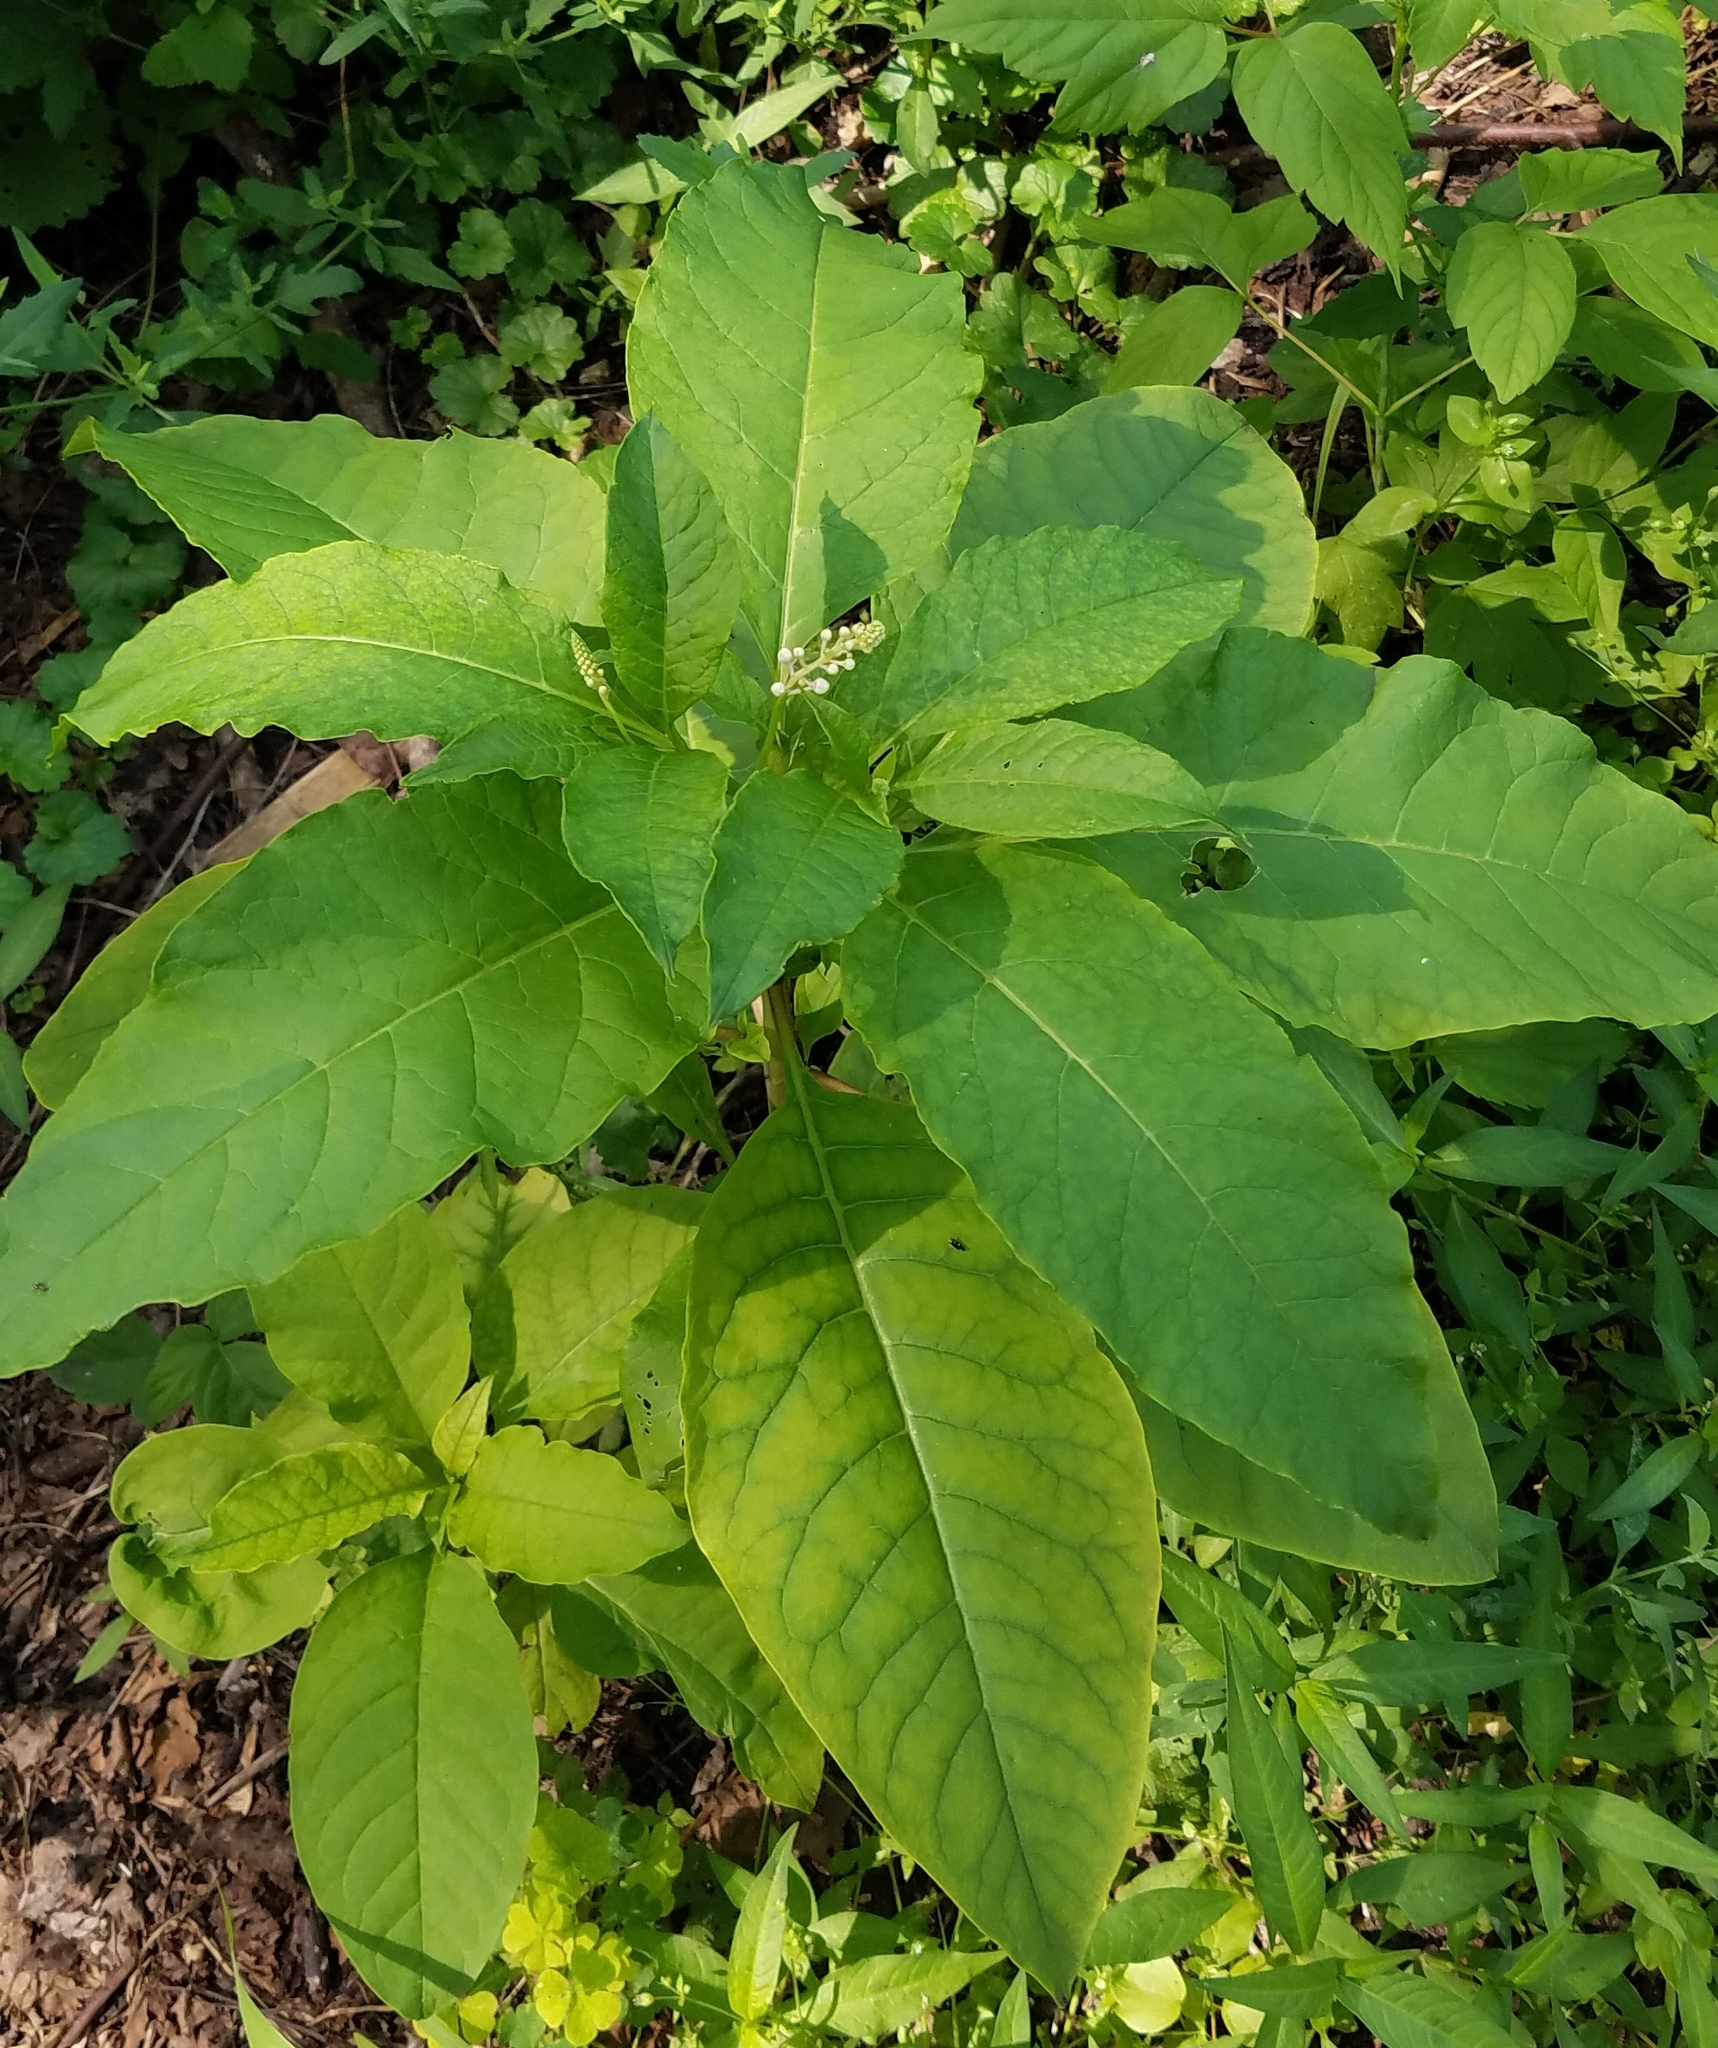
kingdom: Plantae
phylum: Tracheophyta
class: Magnoliopsida
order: Caryophyllales
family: Phytolaccaceae
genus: Phytolacca
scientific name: Phytolacca americana
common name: American pokeweed
